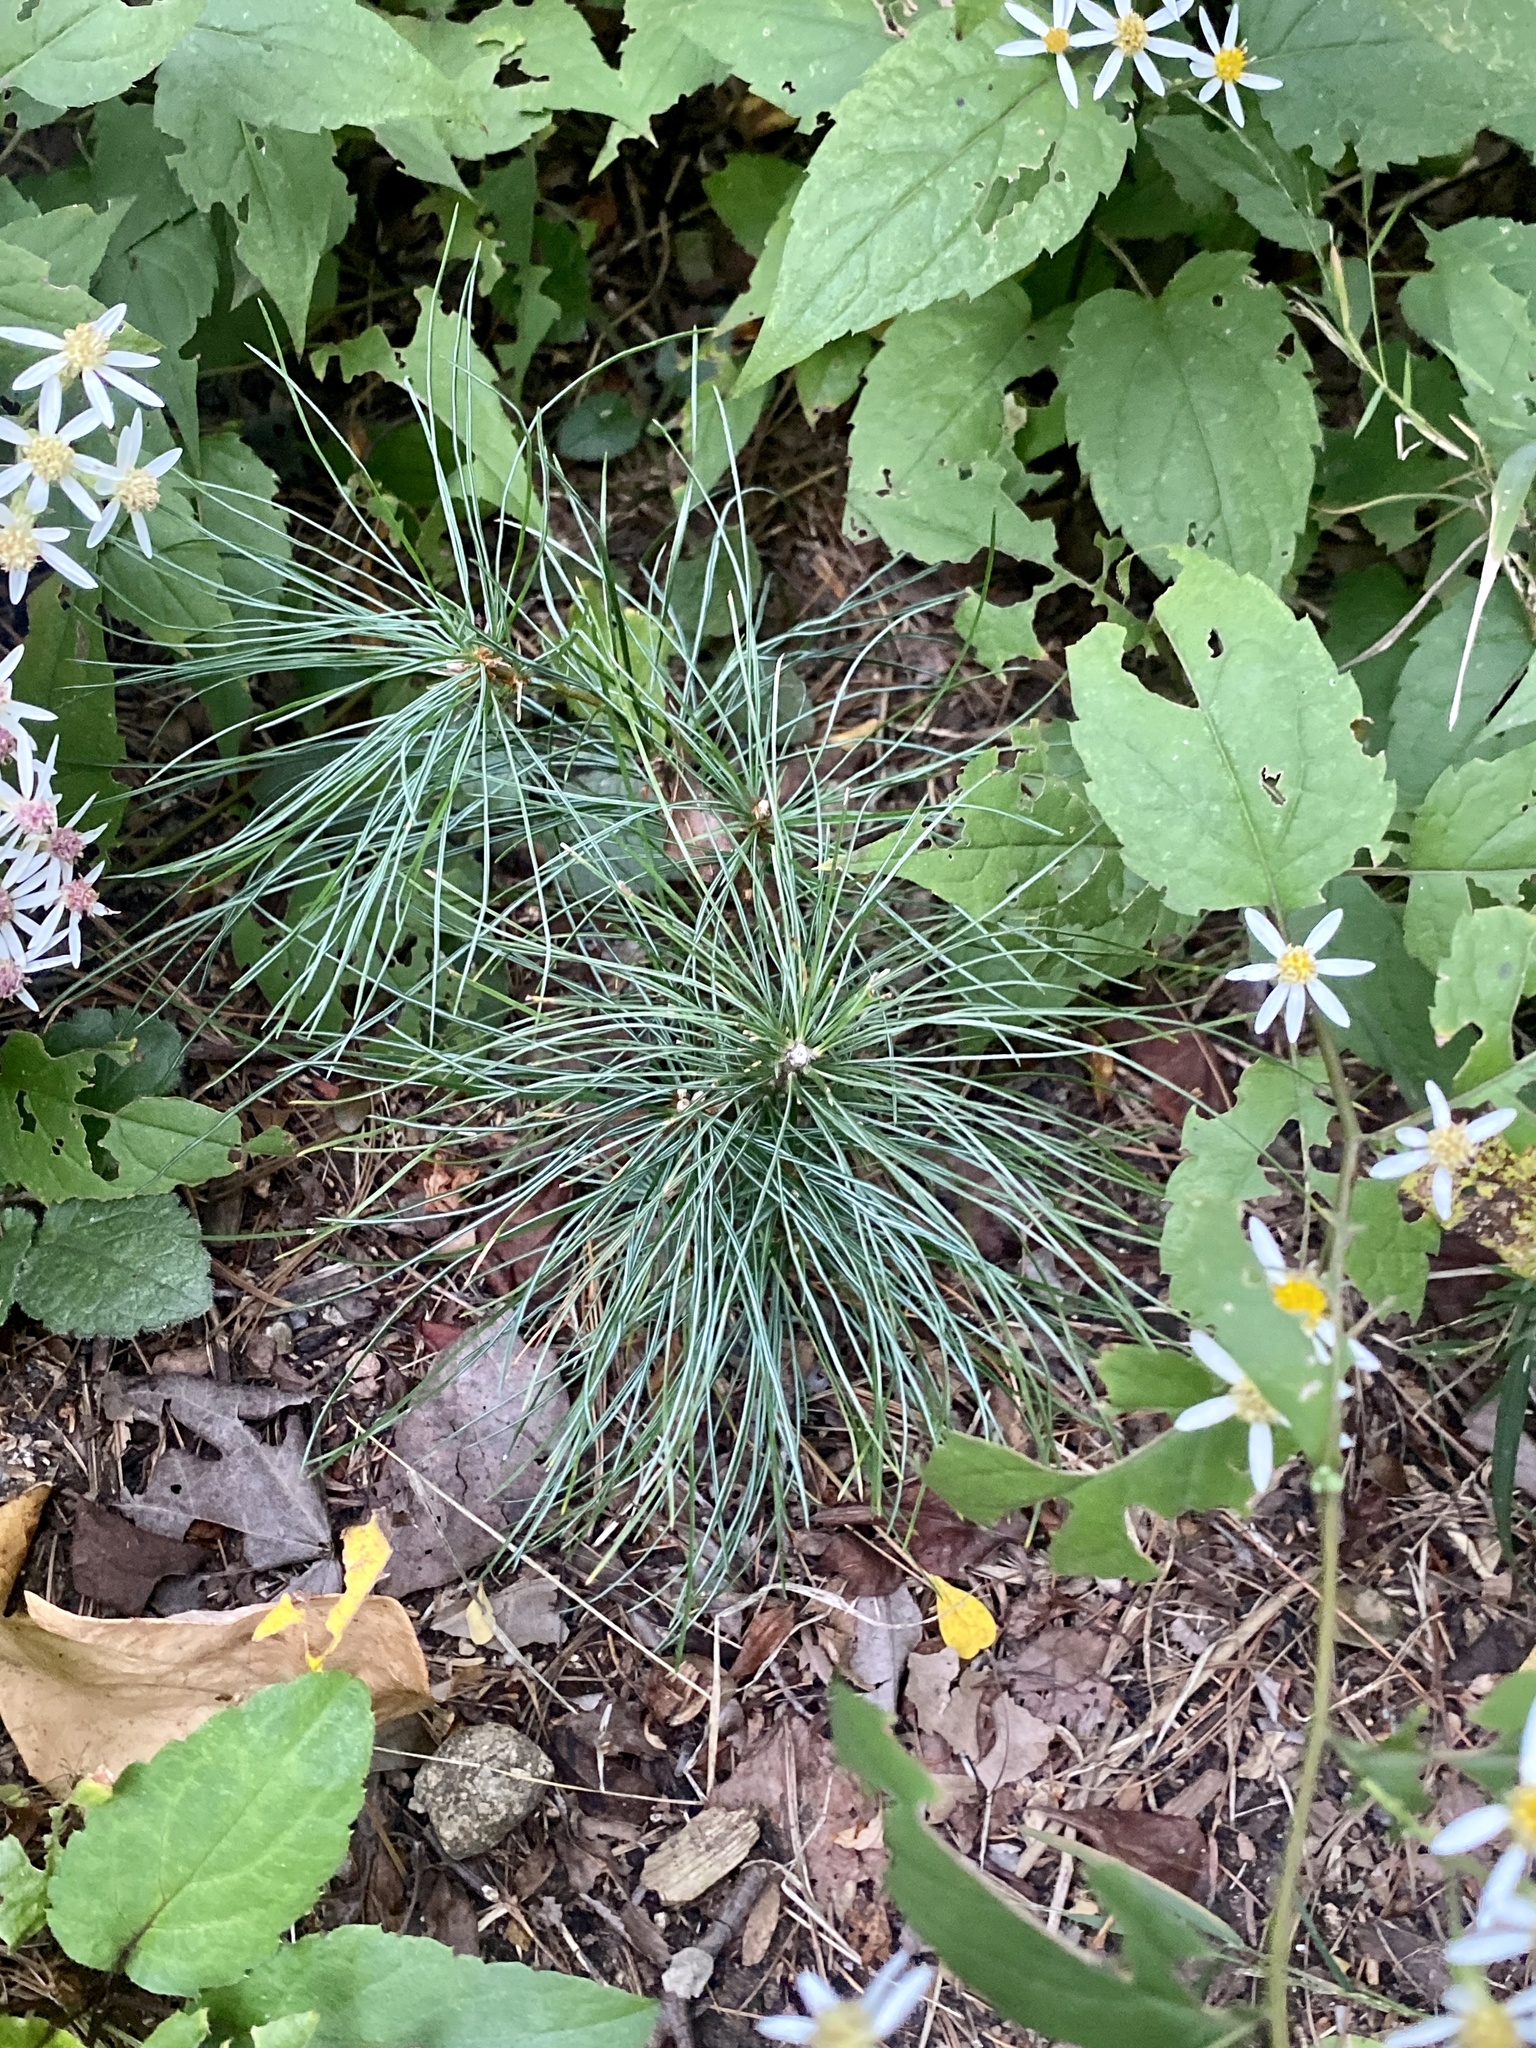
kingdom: Plantae
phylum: Tracheophyta
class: Pinopsida
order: Pinales
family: Pinaceae
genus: Pinus
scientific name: Pinus strobus
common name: Weymouth pine
